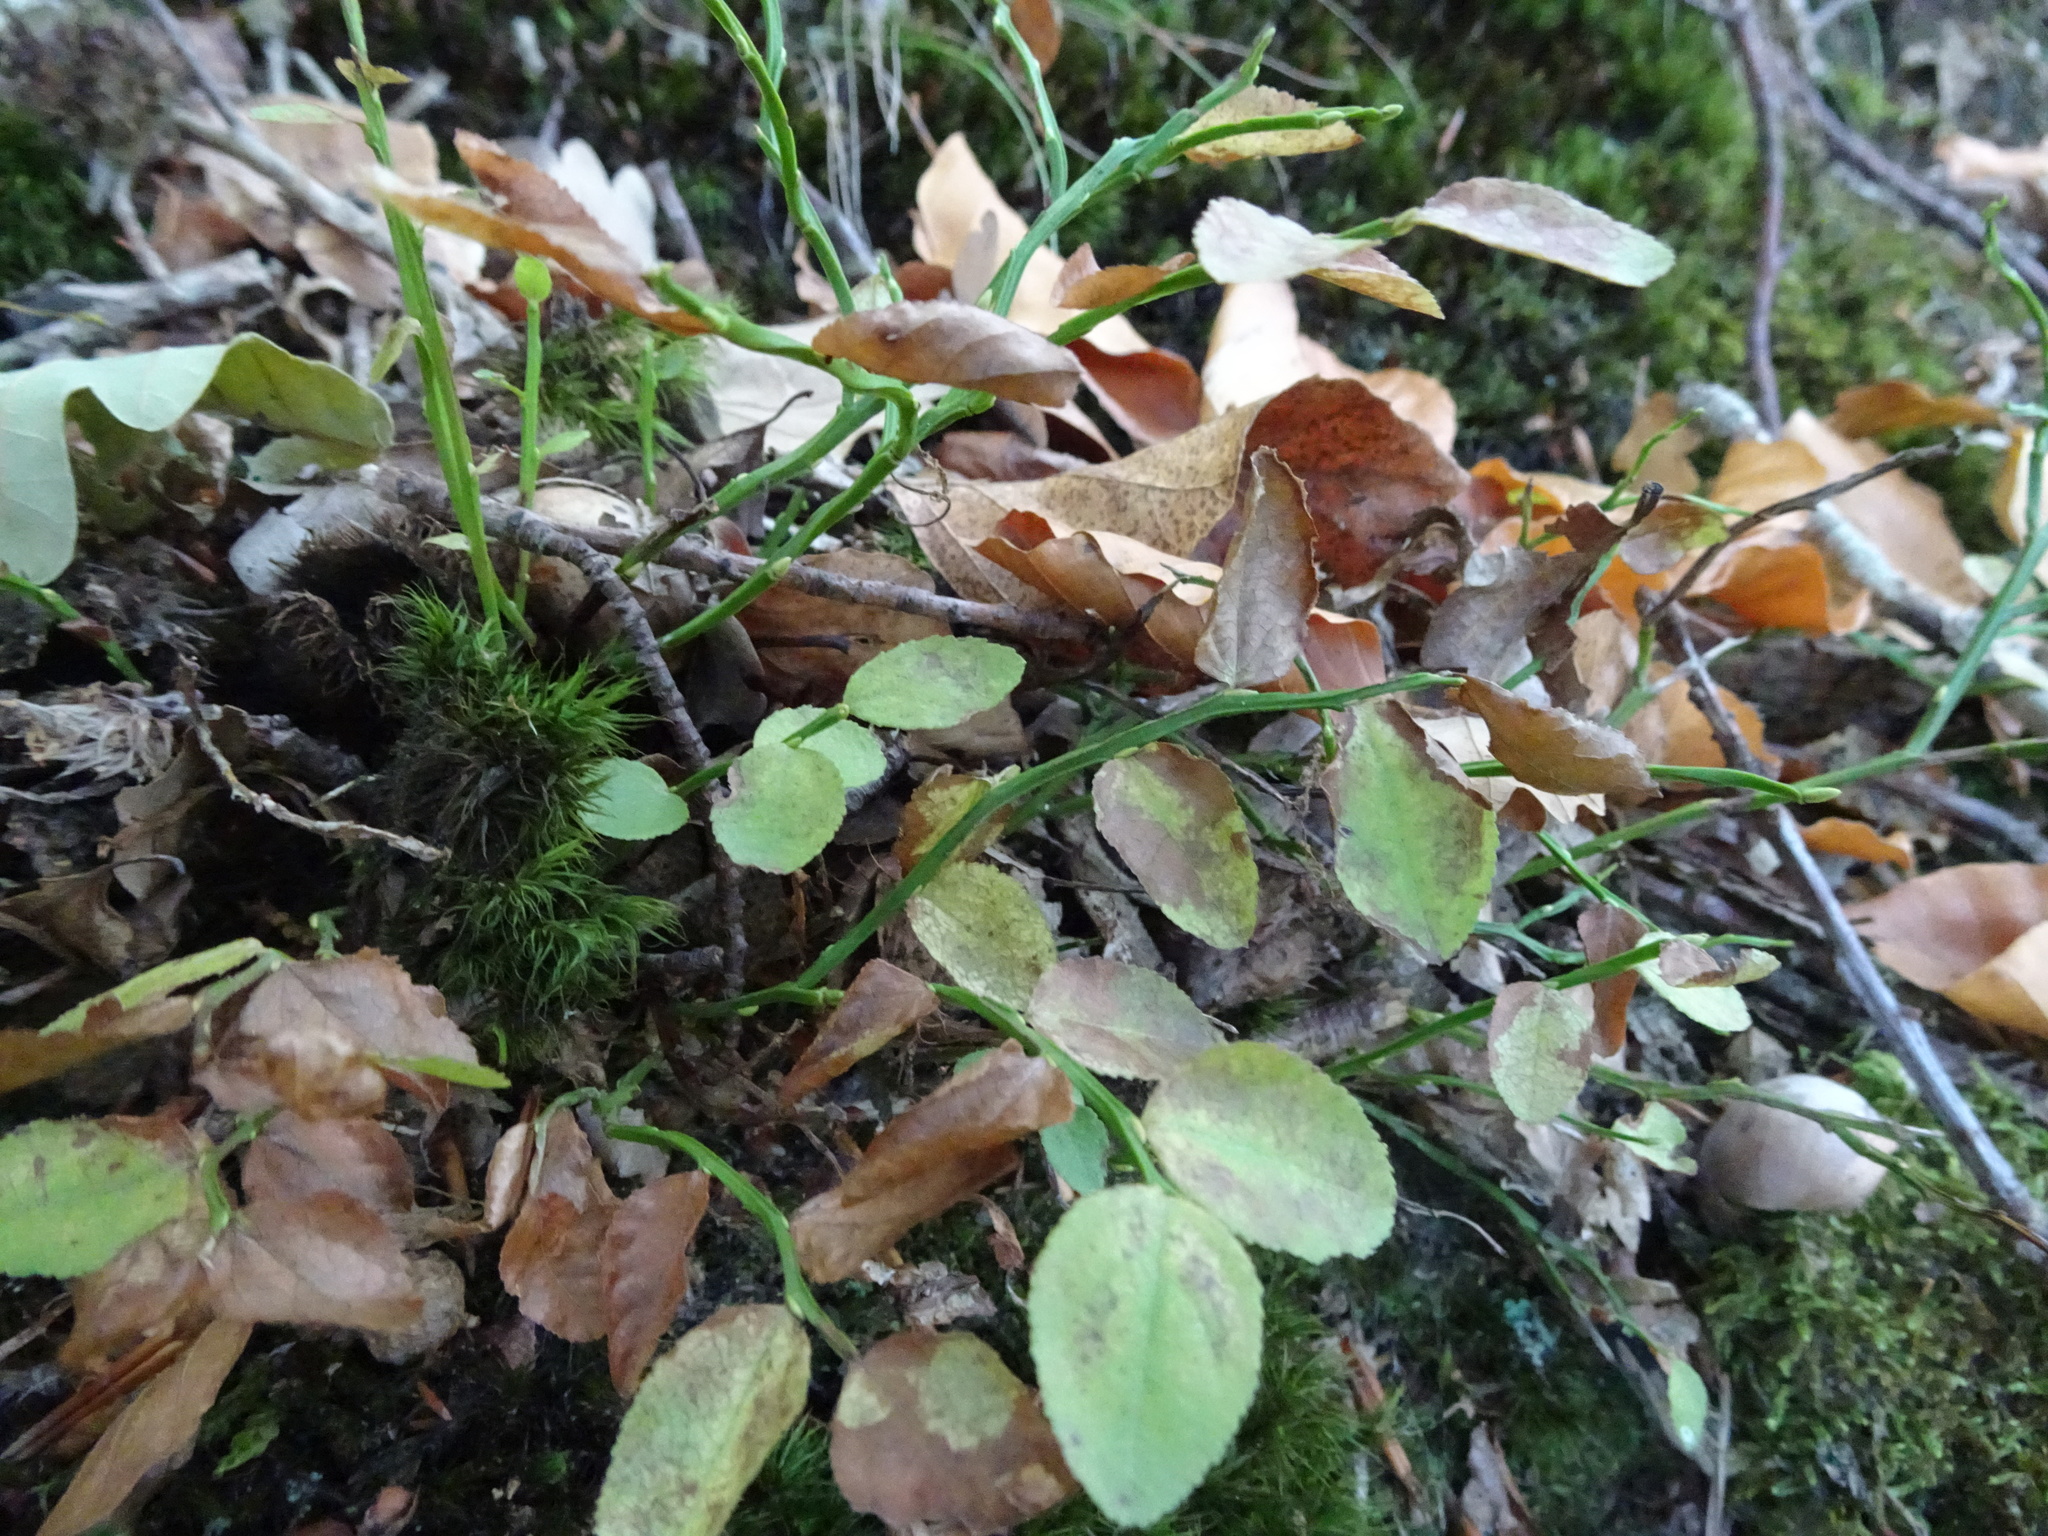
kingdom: Plantae
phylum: Tracheophyta
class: Magnoliopsida
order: Ericales
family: Ericaceae
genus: Vaccinium
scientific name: Vaccinium myrtillus
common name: Bilberry
